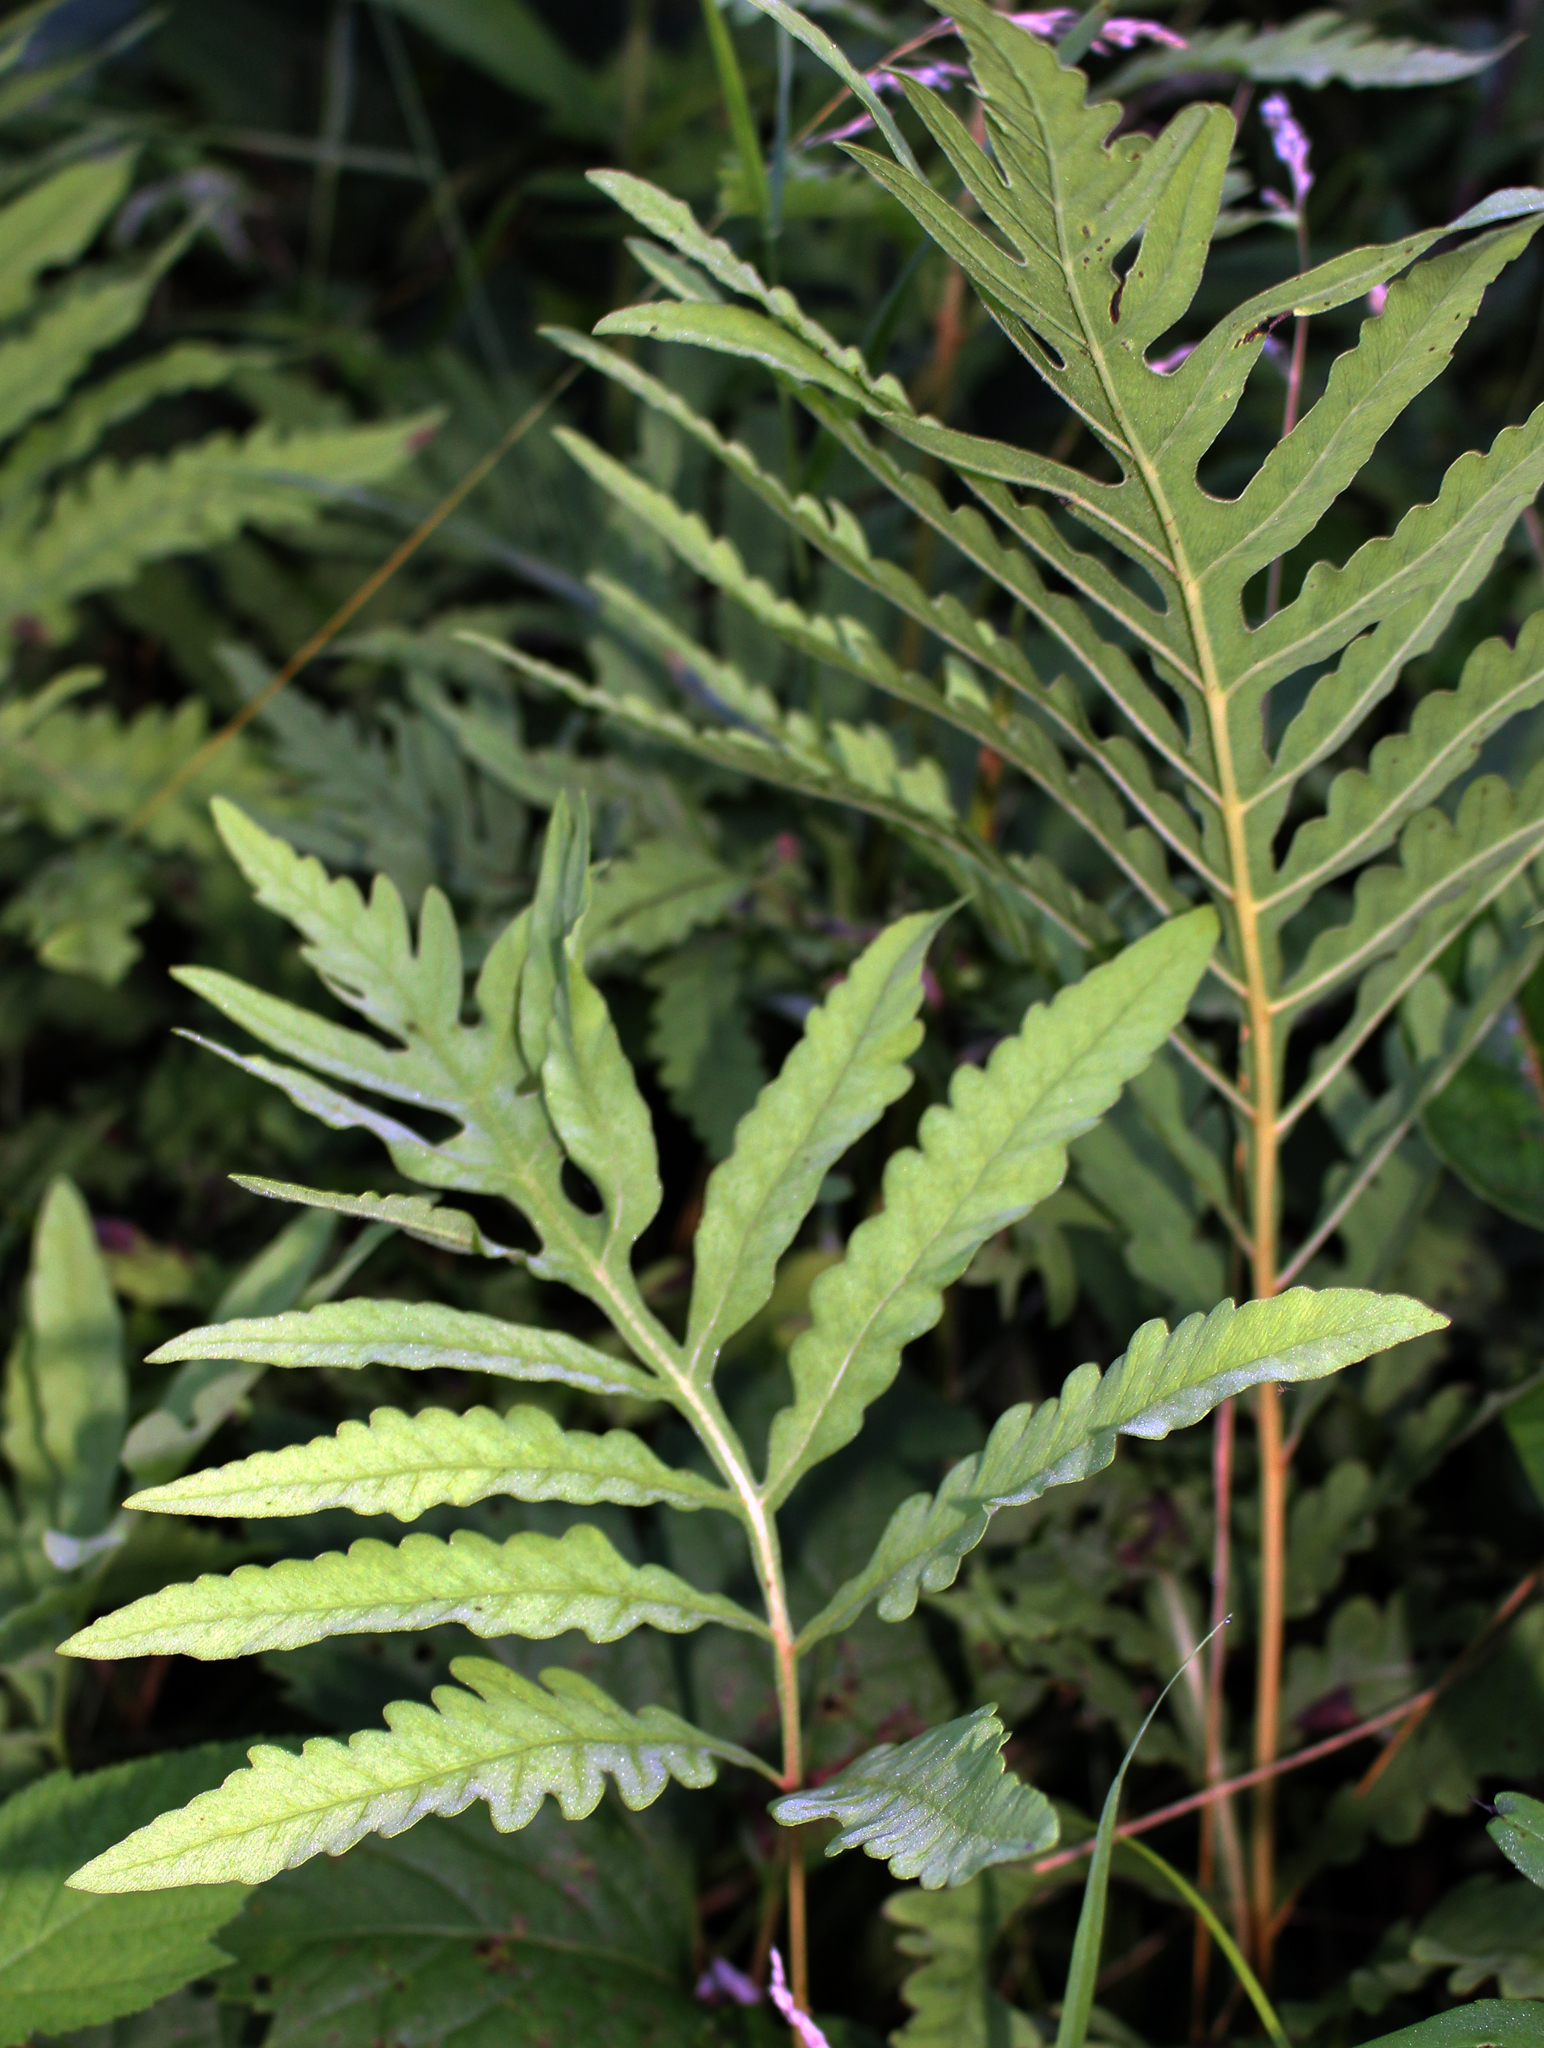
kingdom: Plantae
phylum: Tracheophyta
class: Polypodiopsida
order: Polypodiales
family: Onocleaceae
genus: Onoclea
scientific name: Onoclea sensibilis
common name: Sensitive fern
